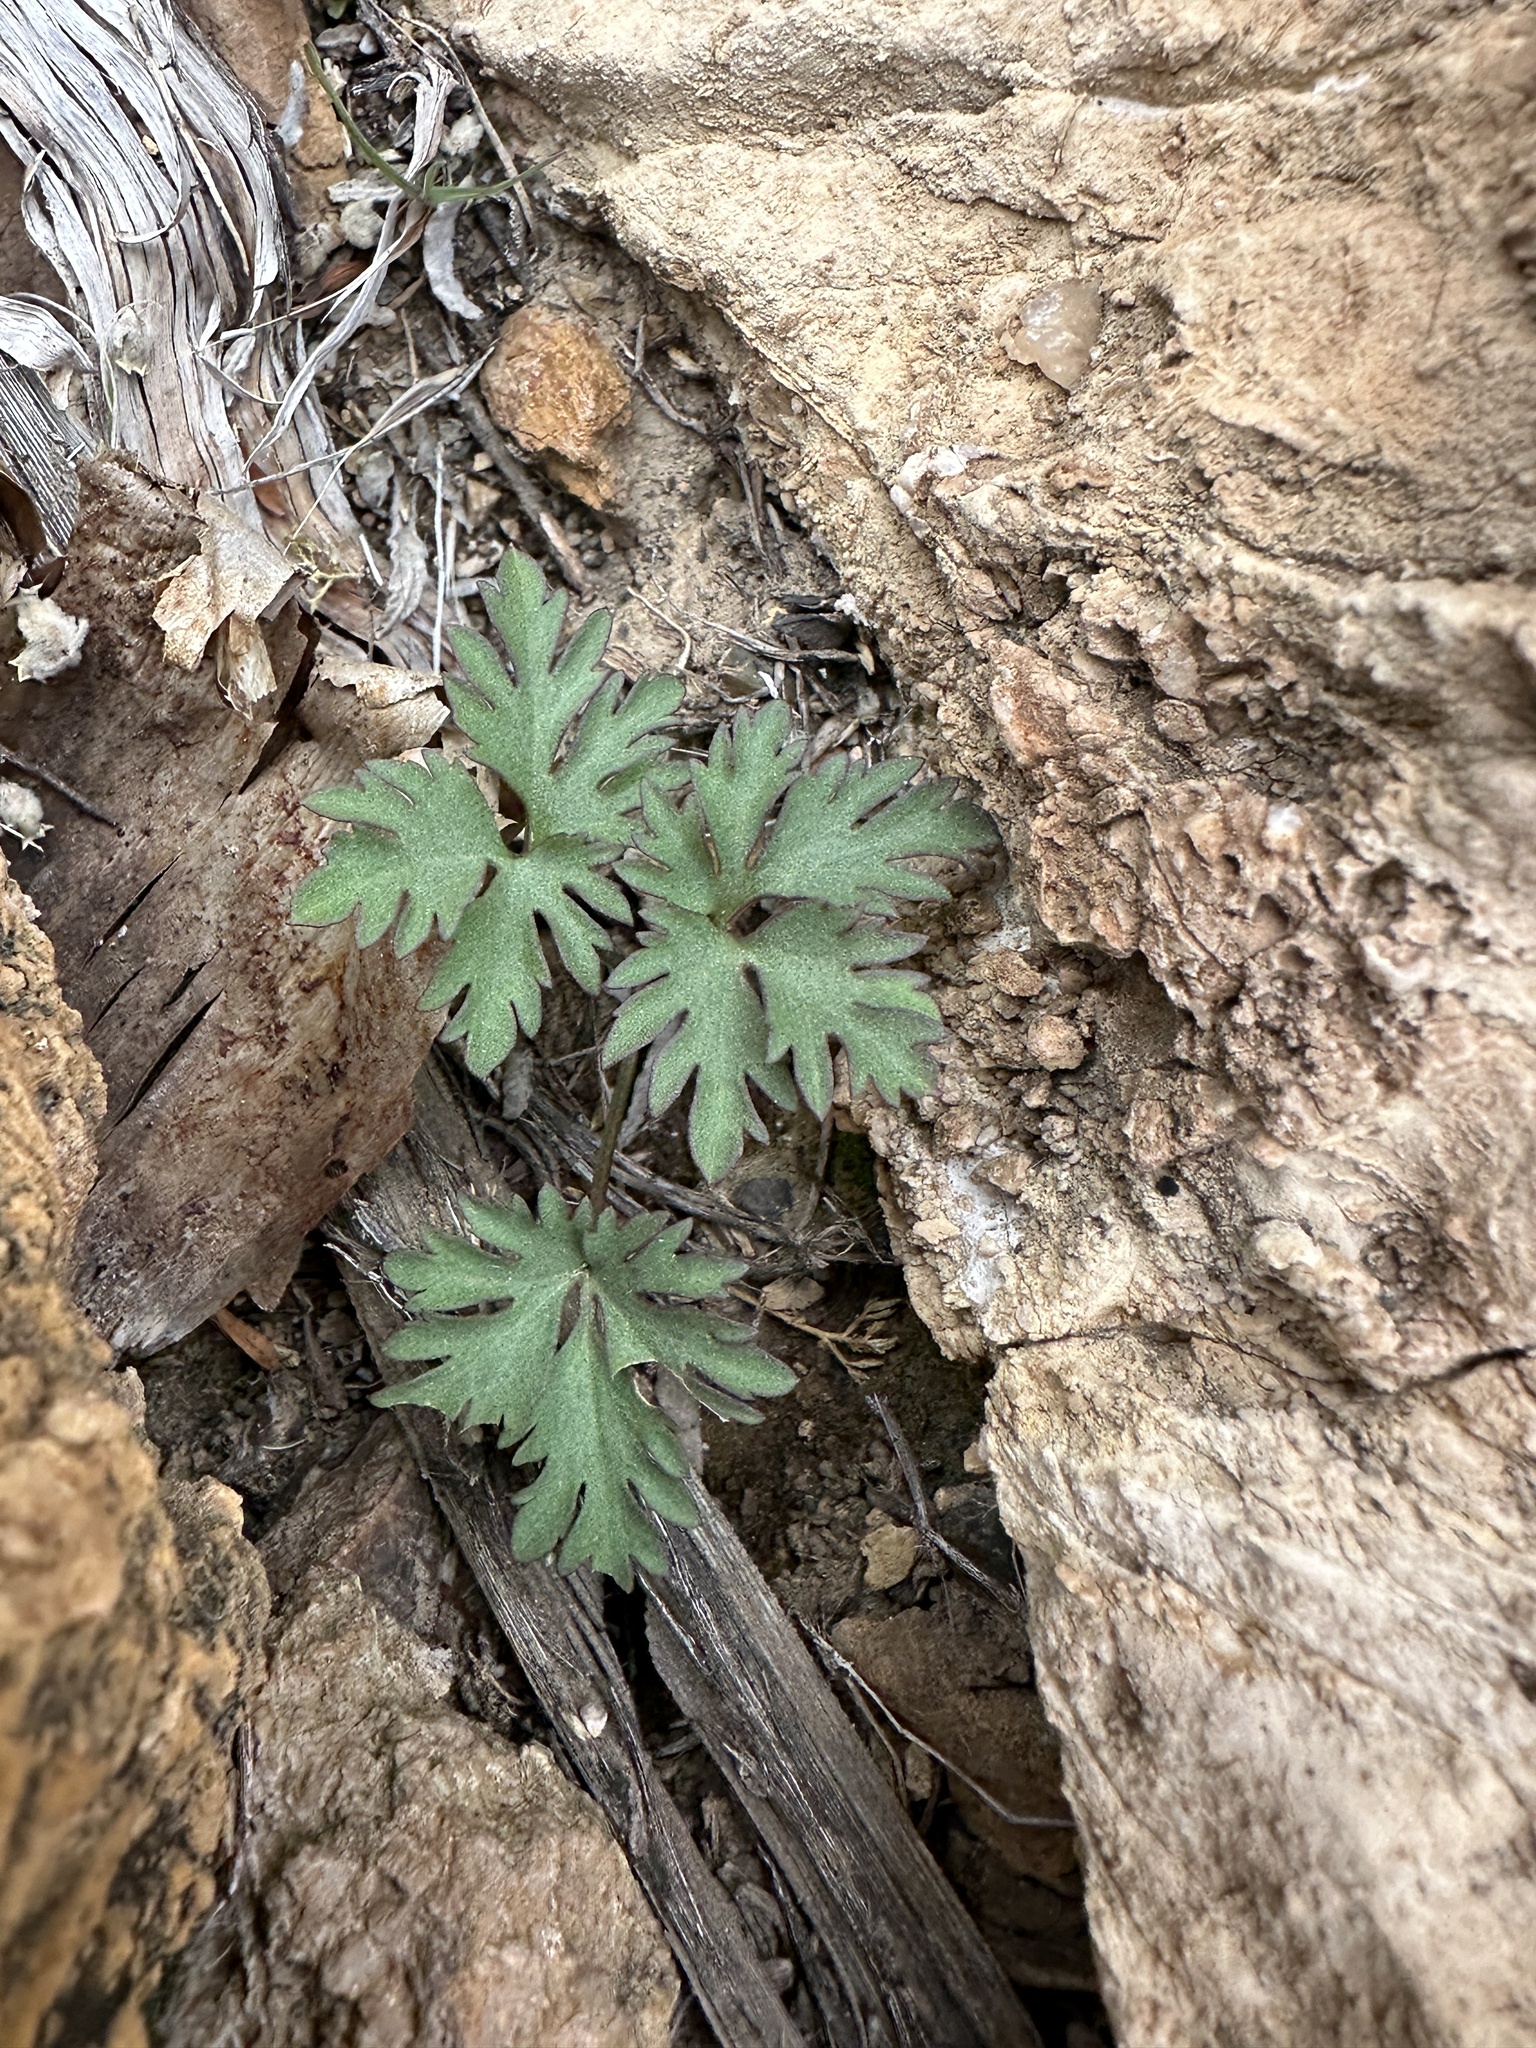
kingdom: Plantae
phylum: Tracheophyta
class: Magnoliopsida
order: Ranunculales
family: Ranunculaceae
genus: Anemone
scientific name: Anemone tuberosa
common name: Desert anemone
